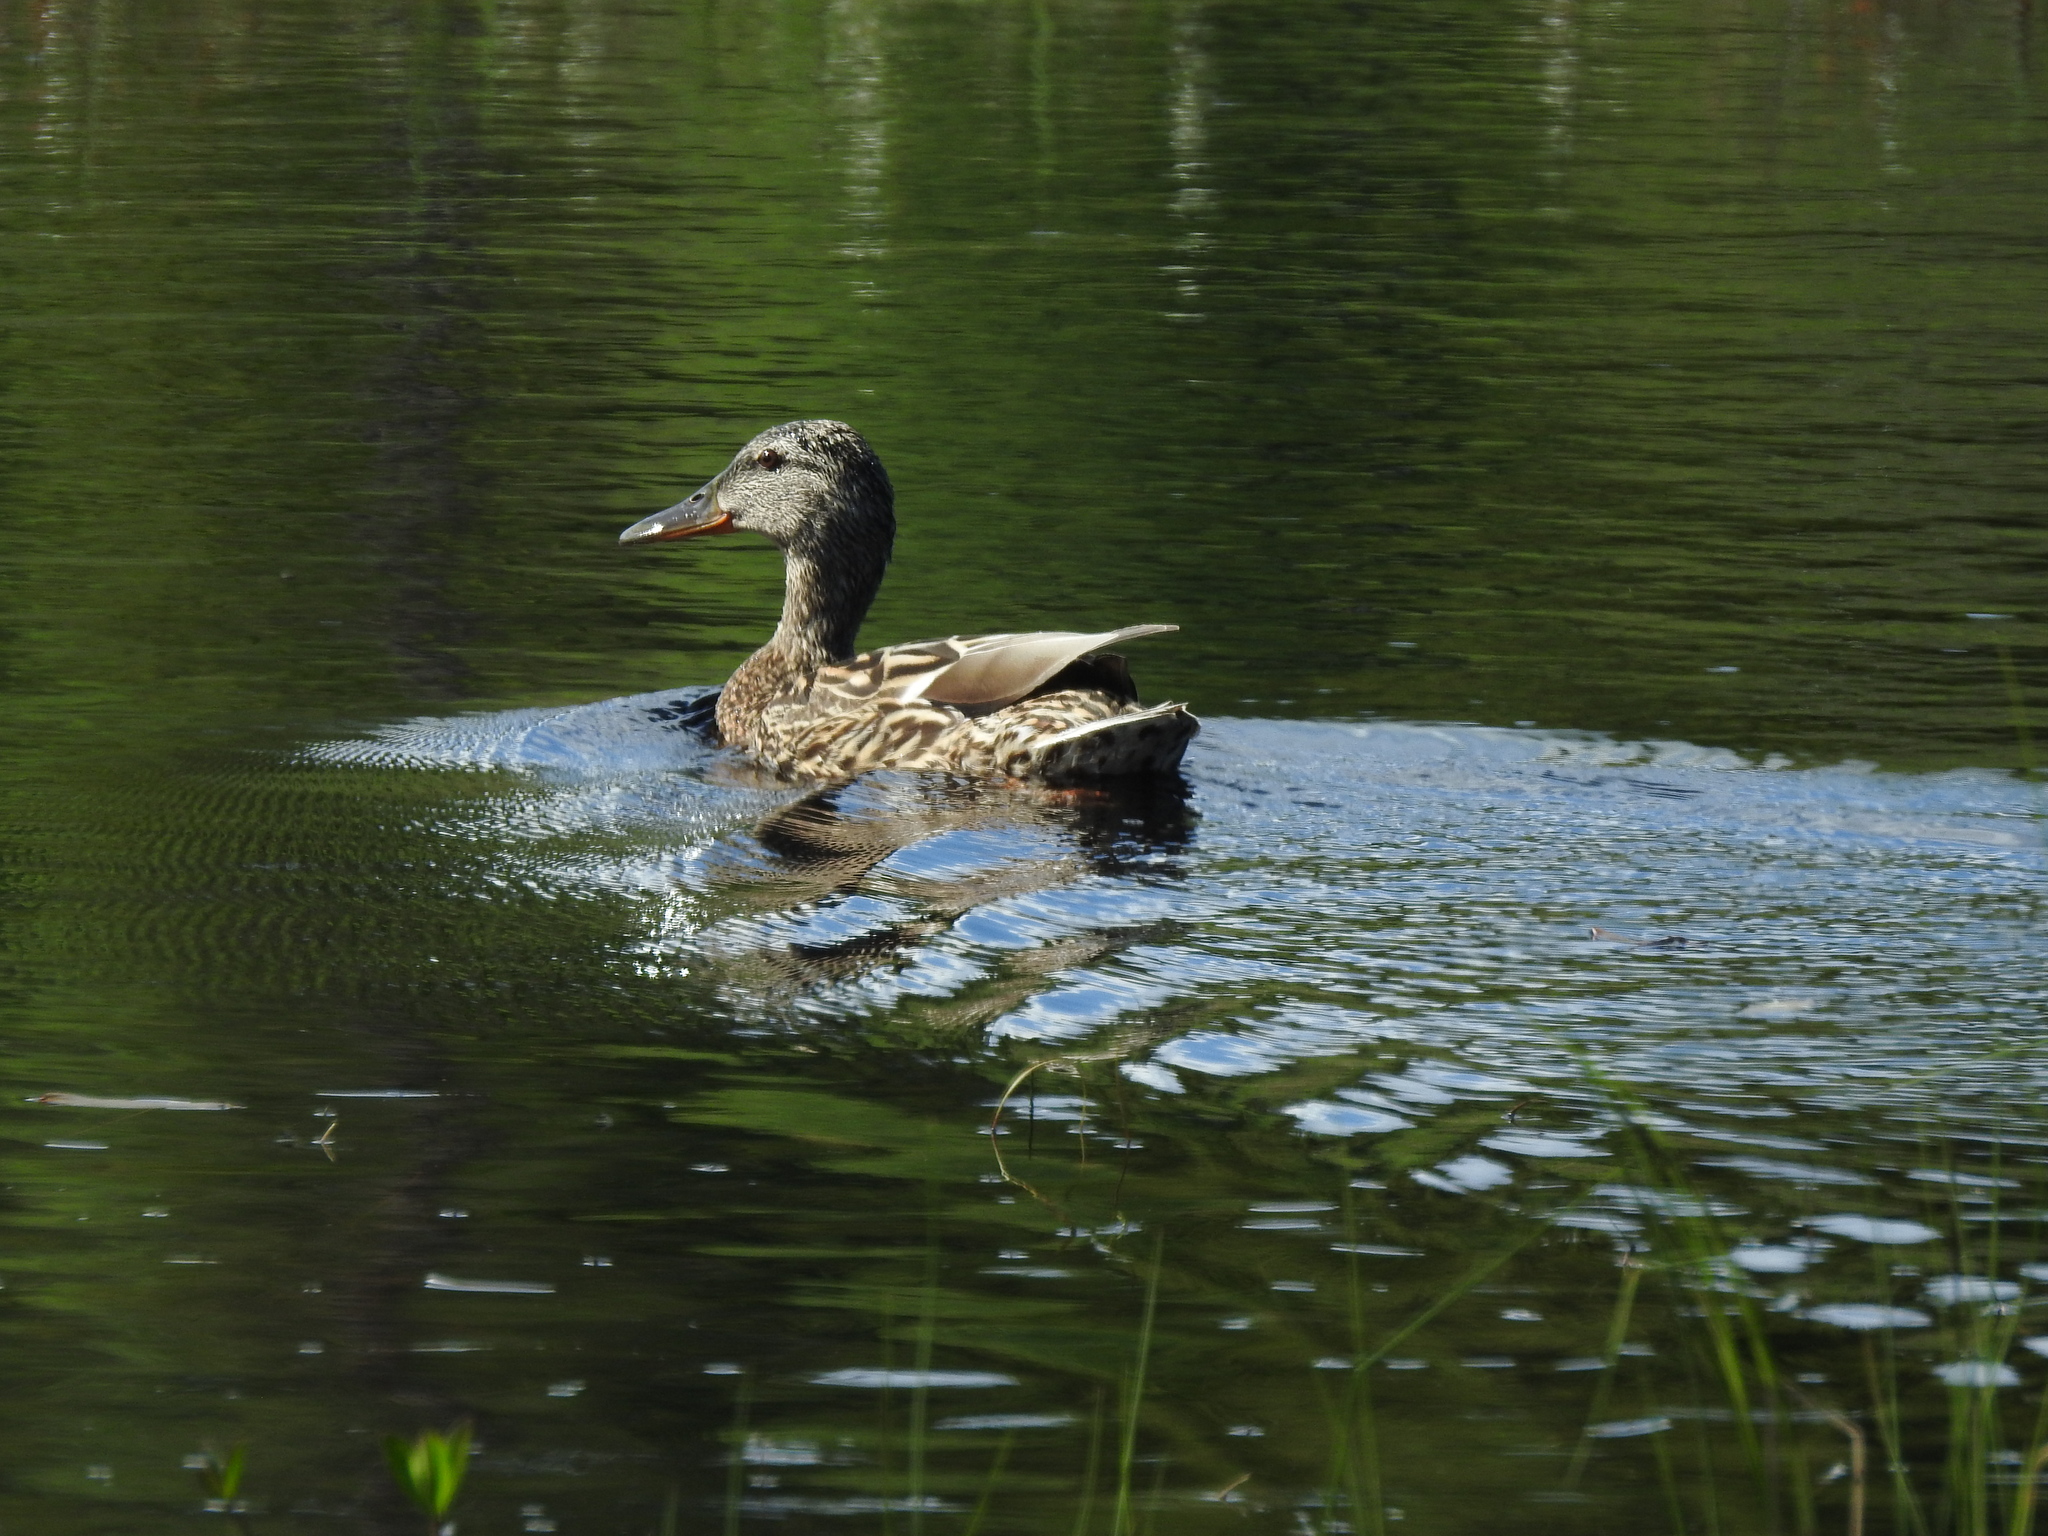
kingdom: Animalia
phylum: Chordata
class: Aves
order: Anseriformes
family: Anatidae
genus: Anas
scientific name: Anas platyrhynchos
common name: Mallard
